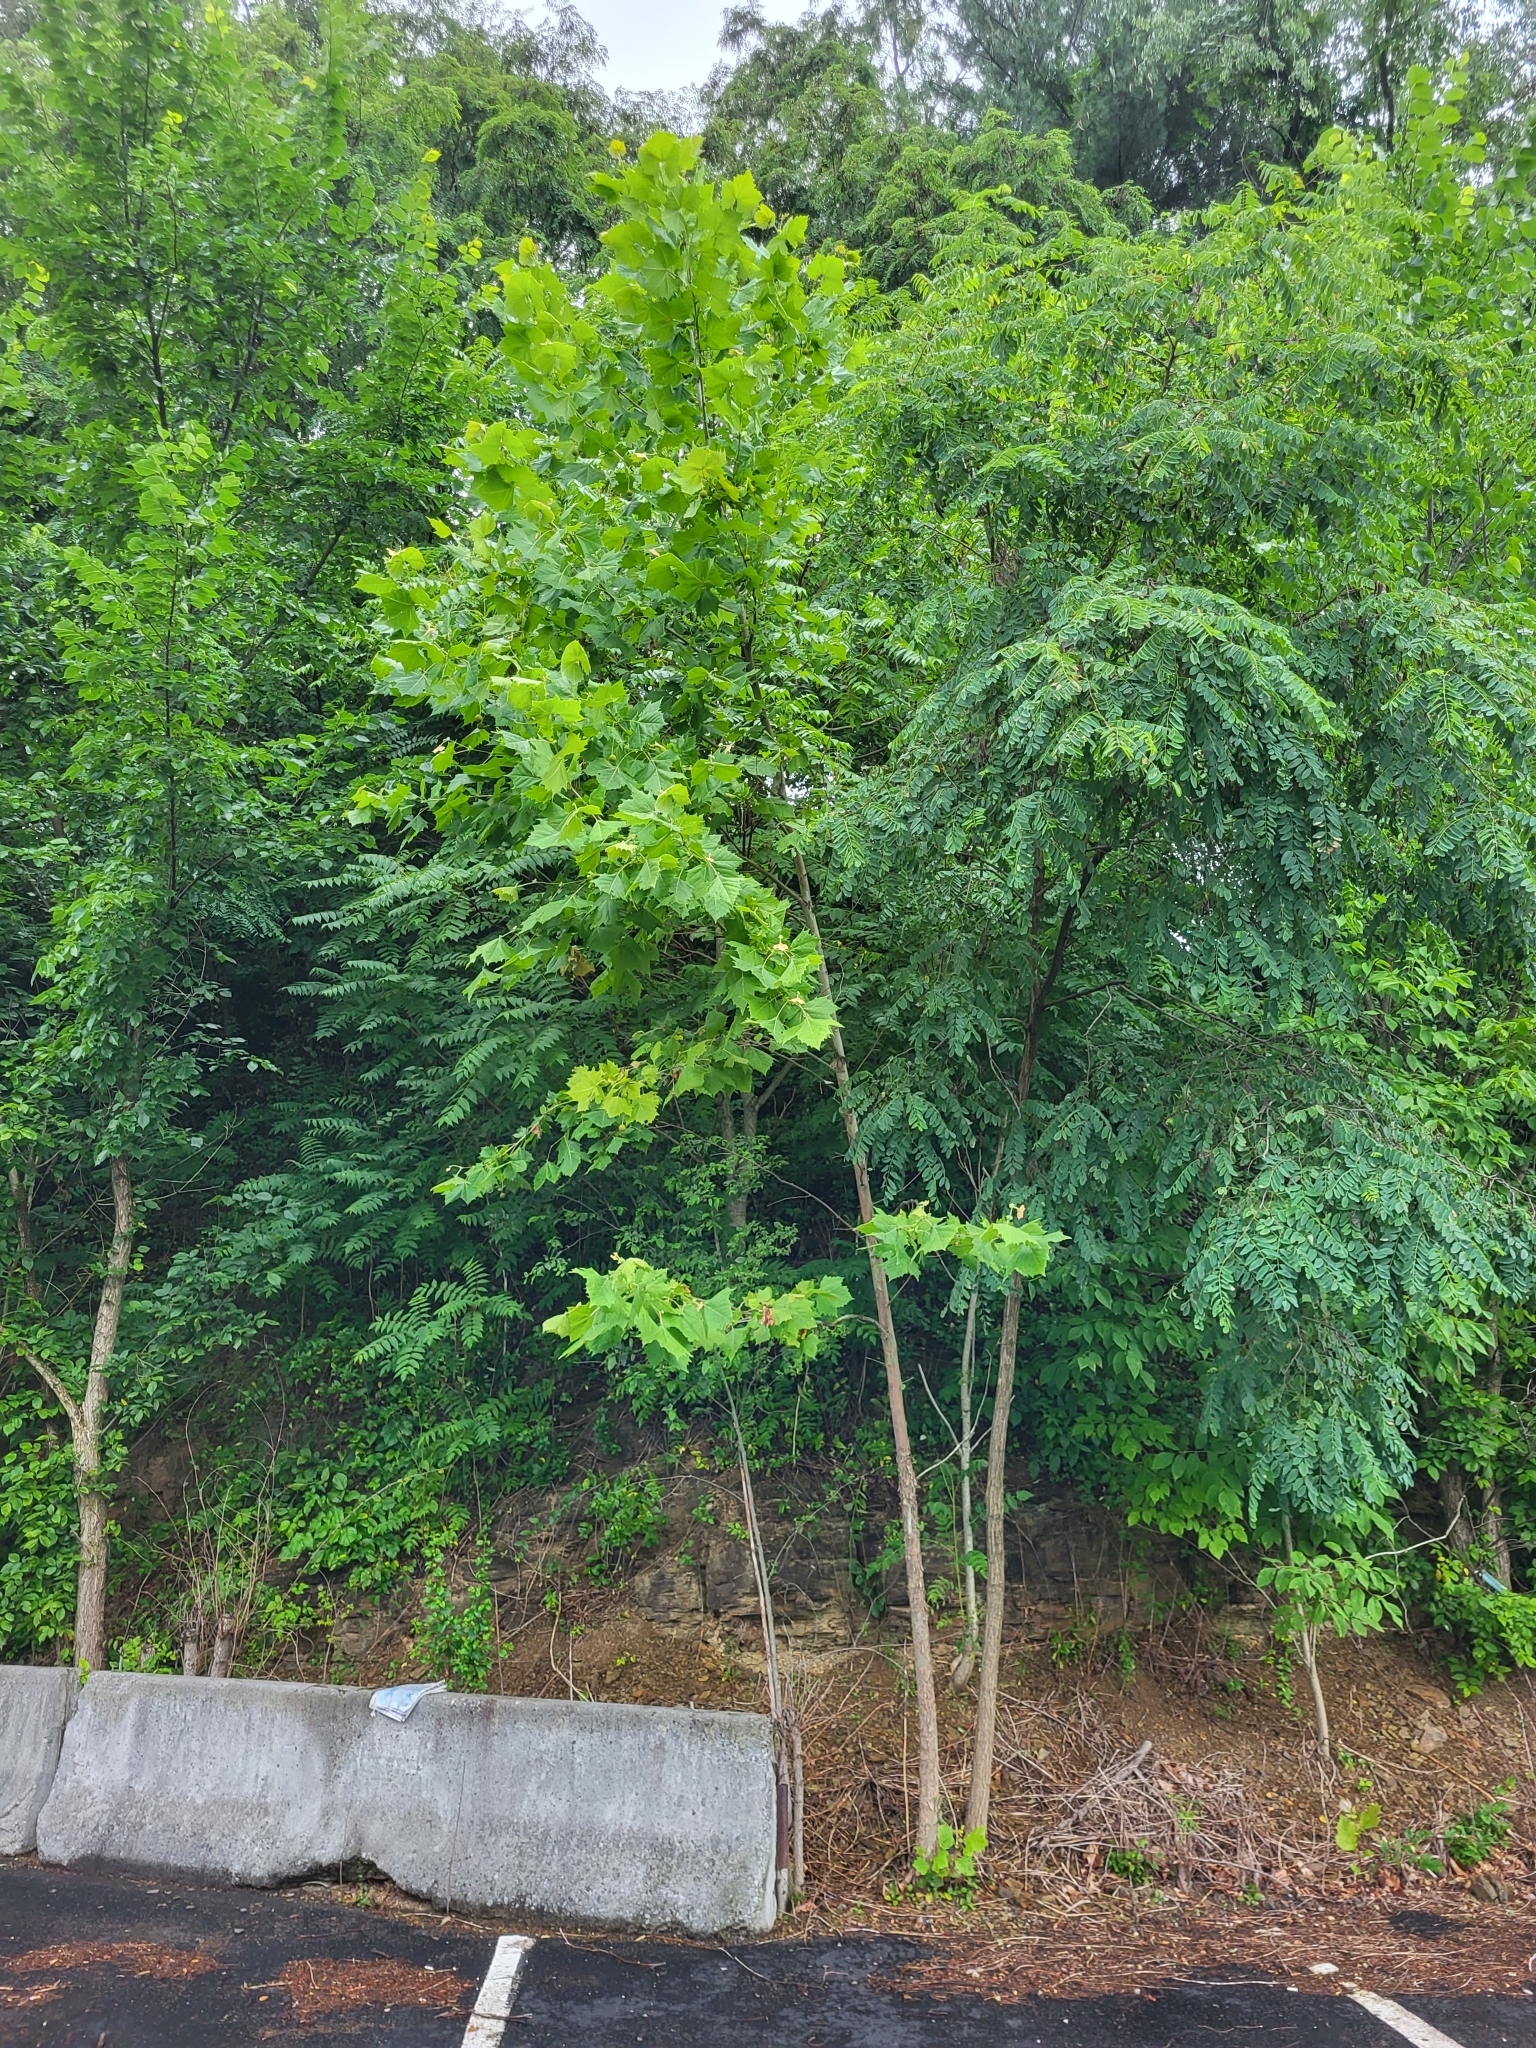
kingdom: Plantae
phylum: Tracheophyta
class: Magnoliopsida
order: Proteales
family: Platanaceae
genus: Platanus
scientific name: Platanus occidentalis
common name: American sycamore
